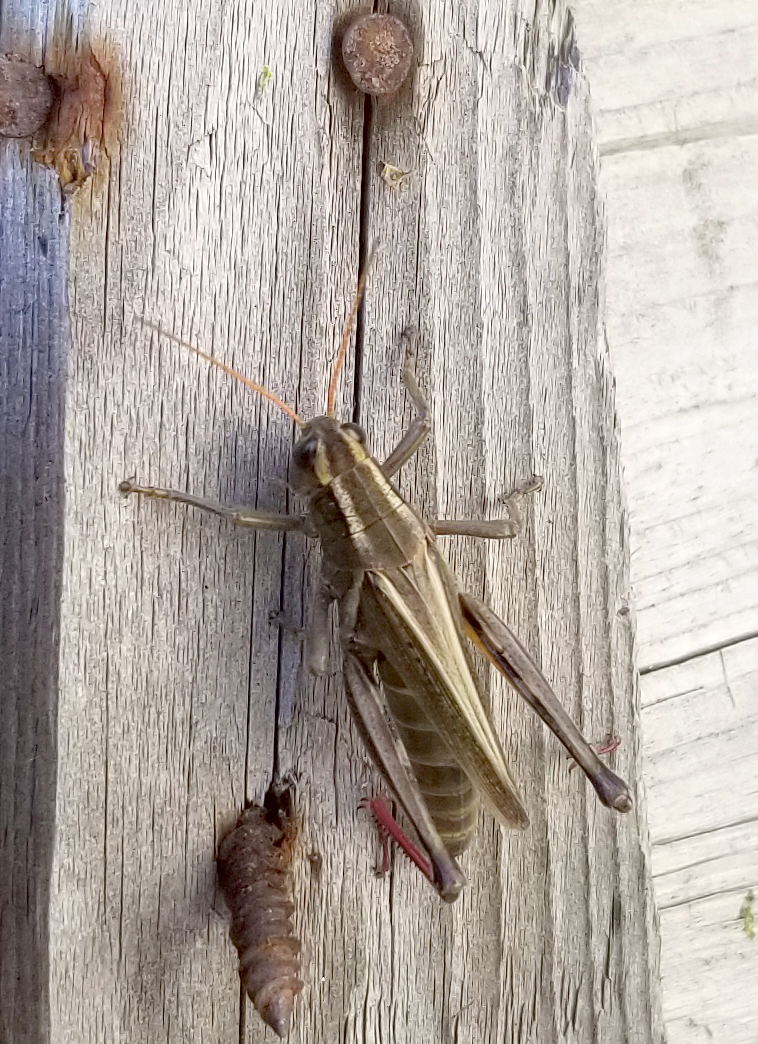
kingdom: Animalia
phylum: Arthropoda
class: Insecta
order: Orthoptera
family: Acrididae
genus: Melanoplus
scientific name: Melanoplus bivittatus
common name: Two-striped grasshopper
